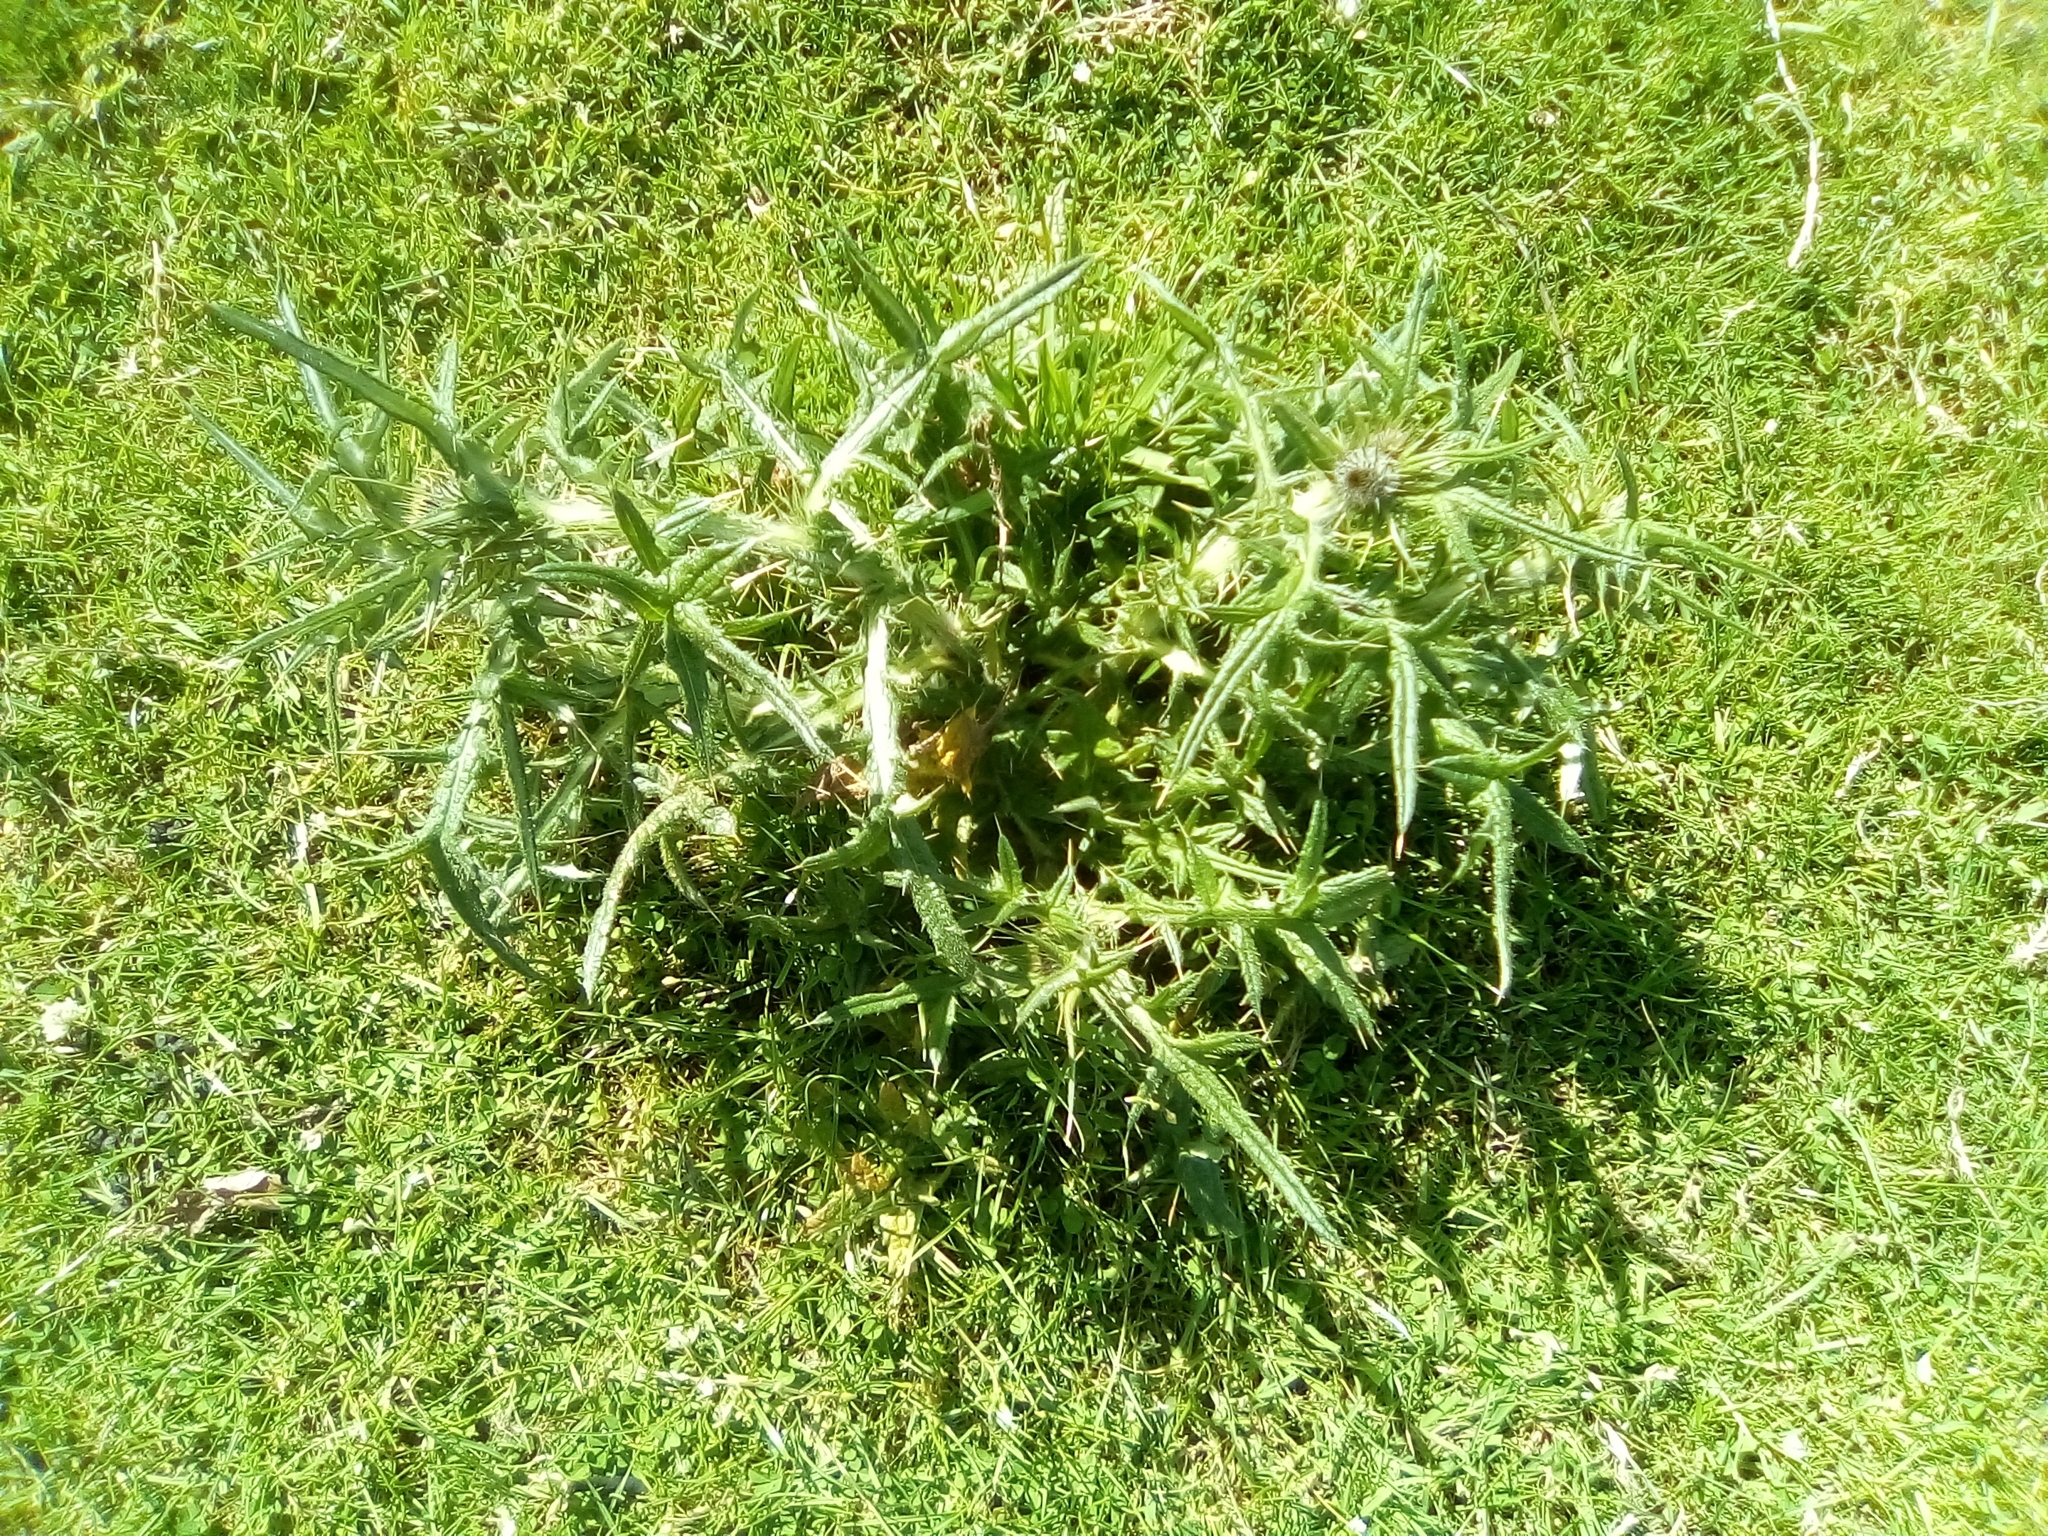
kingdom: Plantae
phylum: Tracheophyta
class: Magnoliopsida
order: Asterales
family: Asteraceae
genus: Cirsium
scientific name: Cirsium vulgare
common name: Bull thistle
